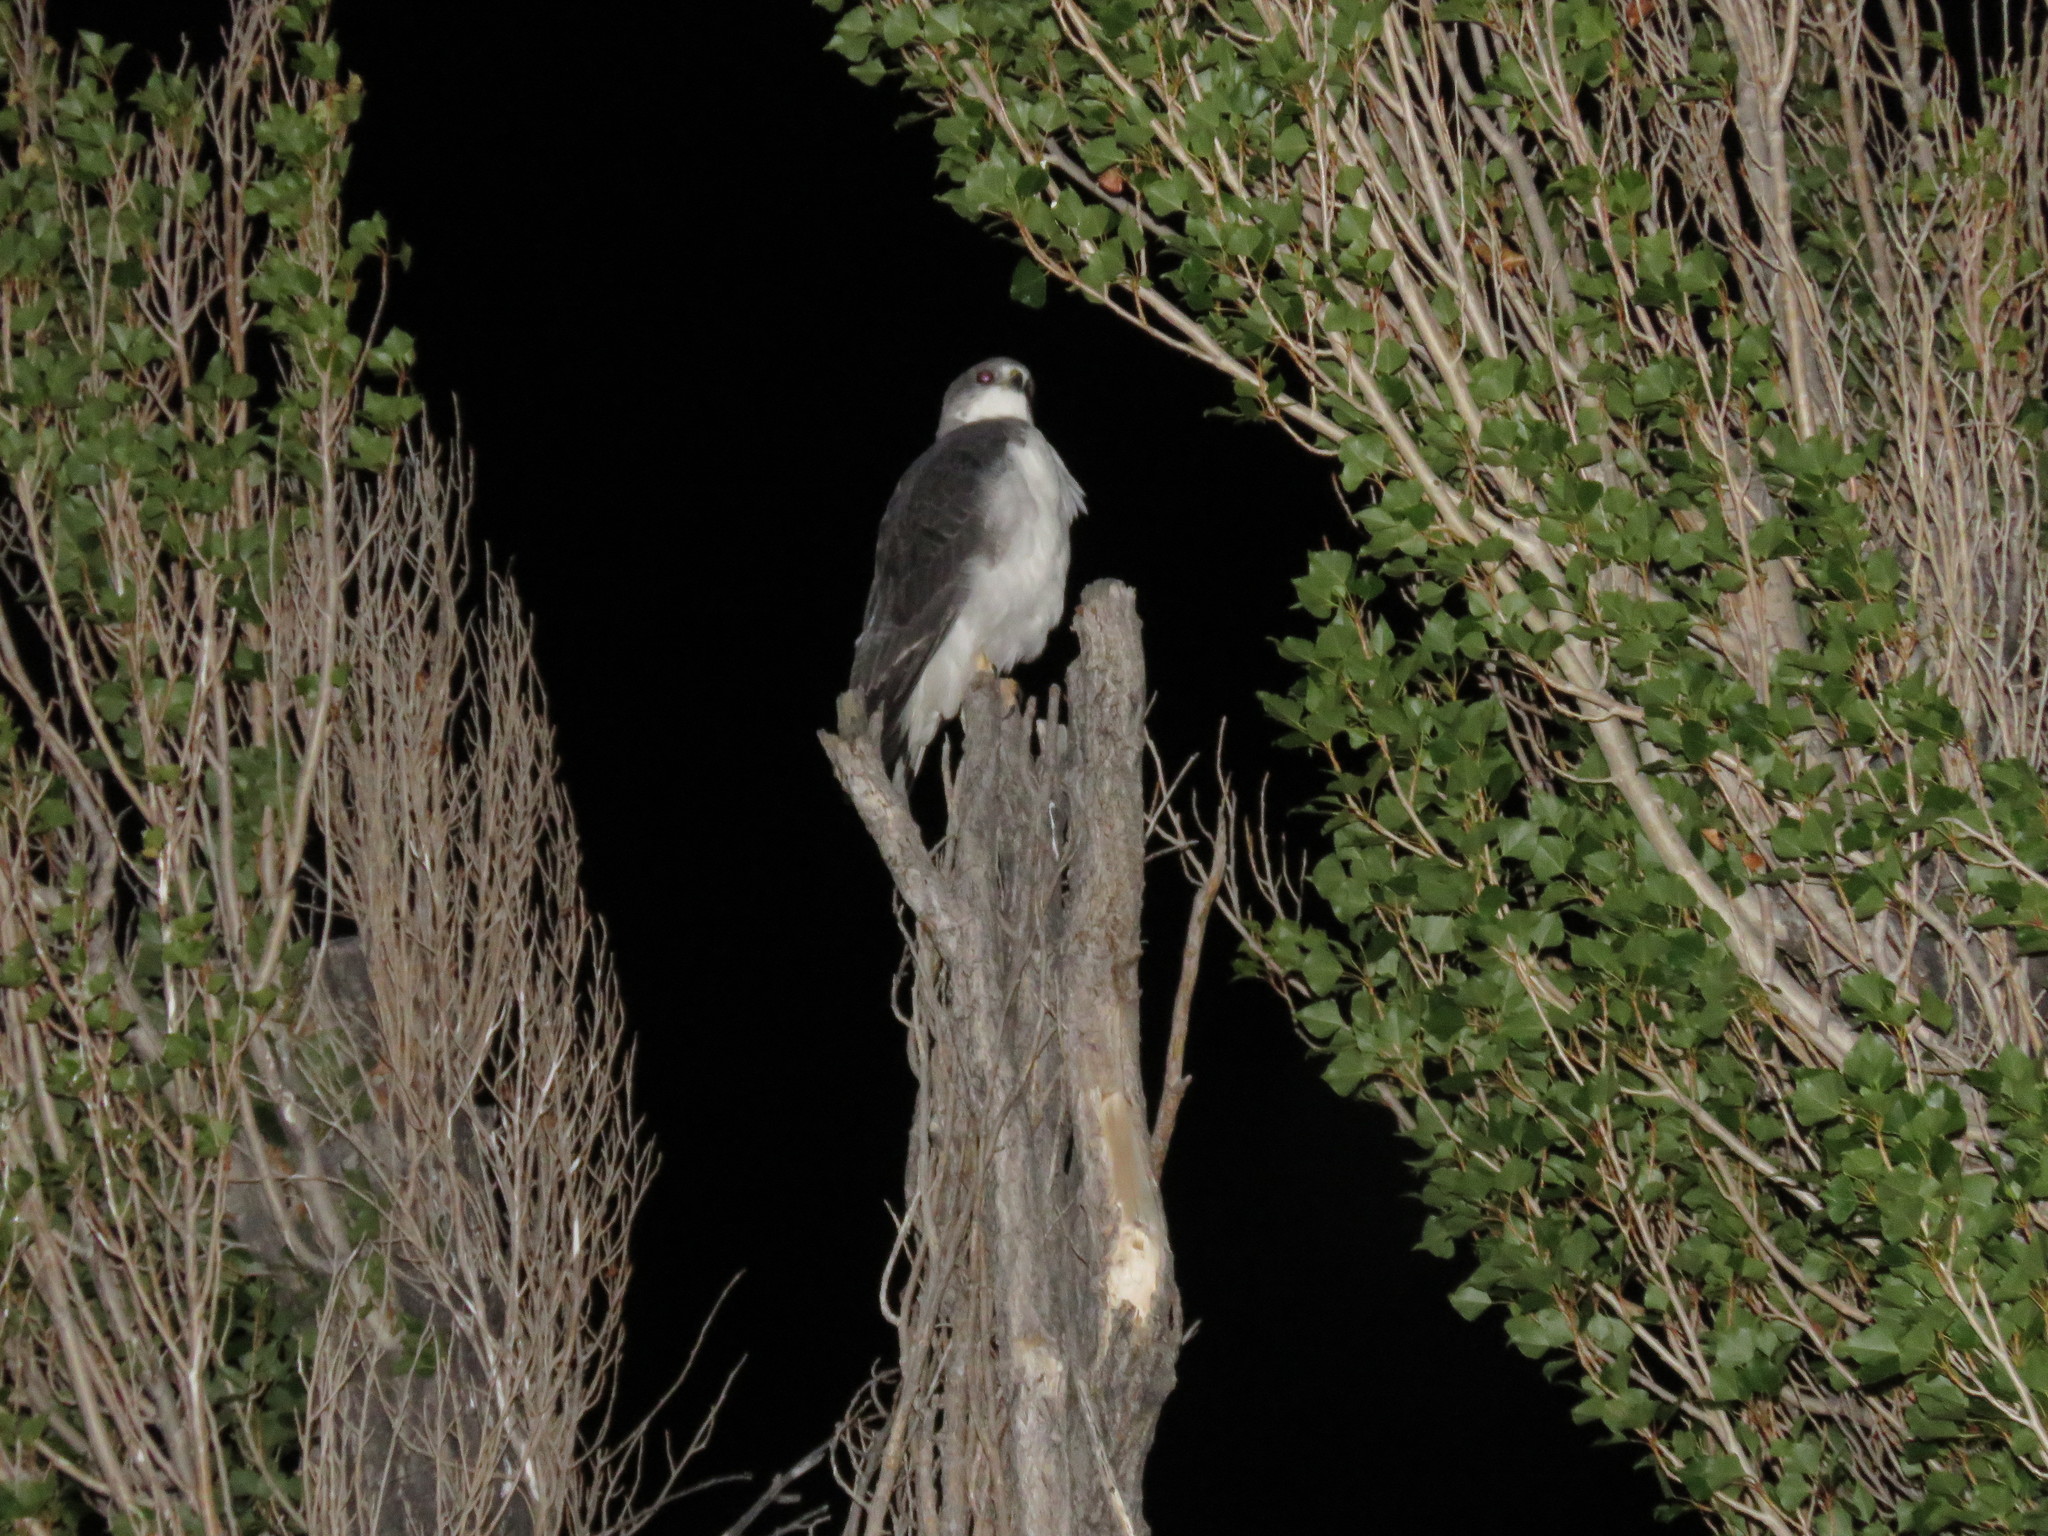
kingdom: Animalia
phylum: Chordata
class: Aves
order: Accipitriformes
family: Accipitridae
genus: Buteo
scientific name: Buteo polyosoma
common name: Variable hawk
